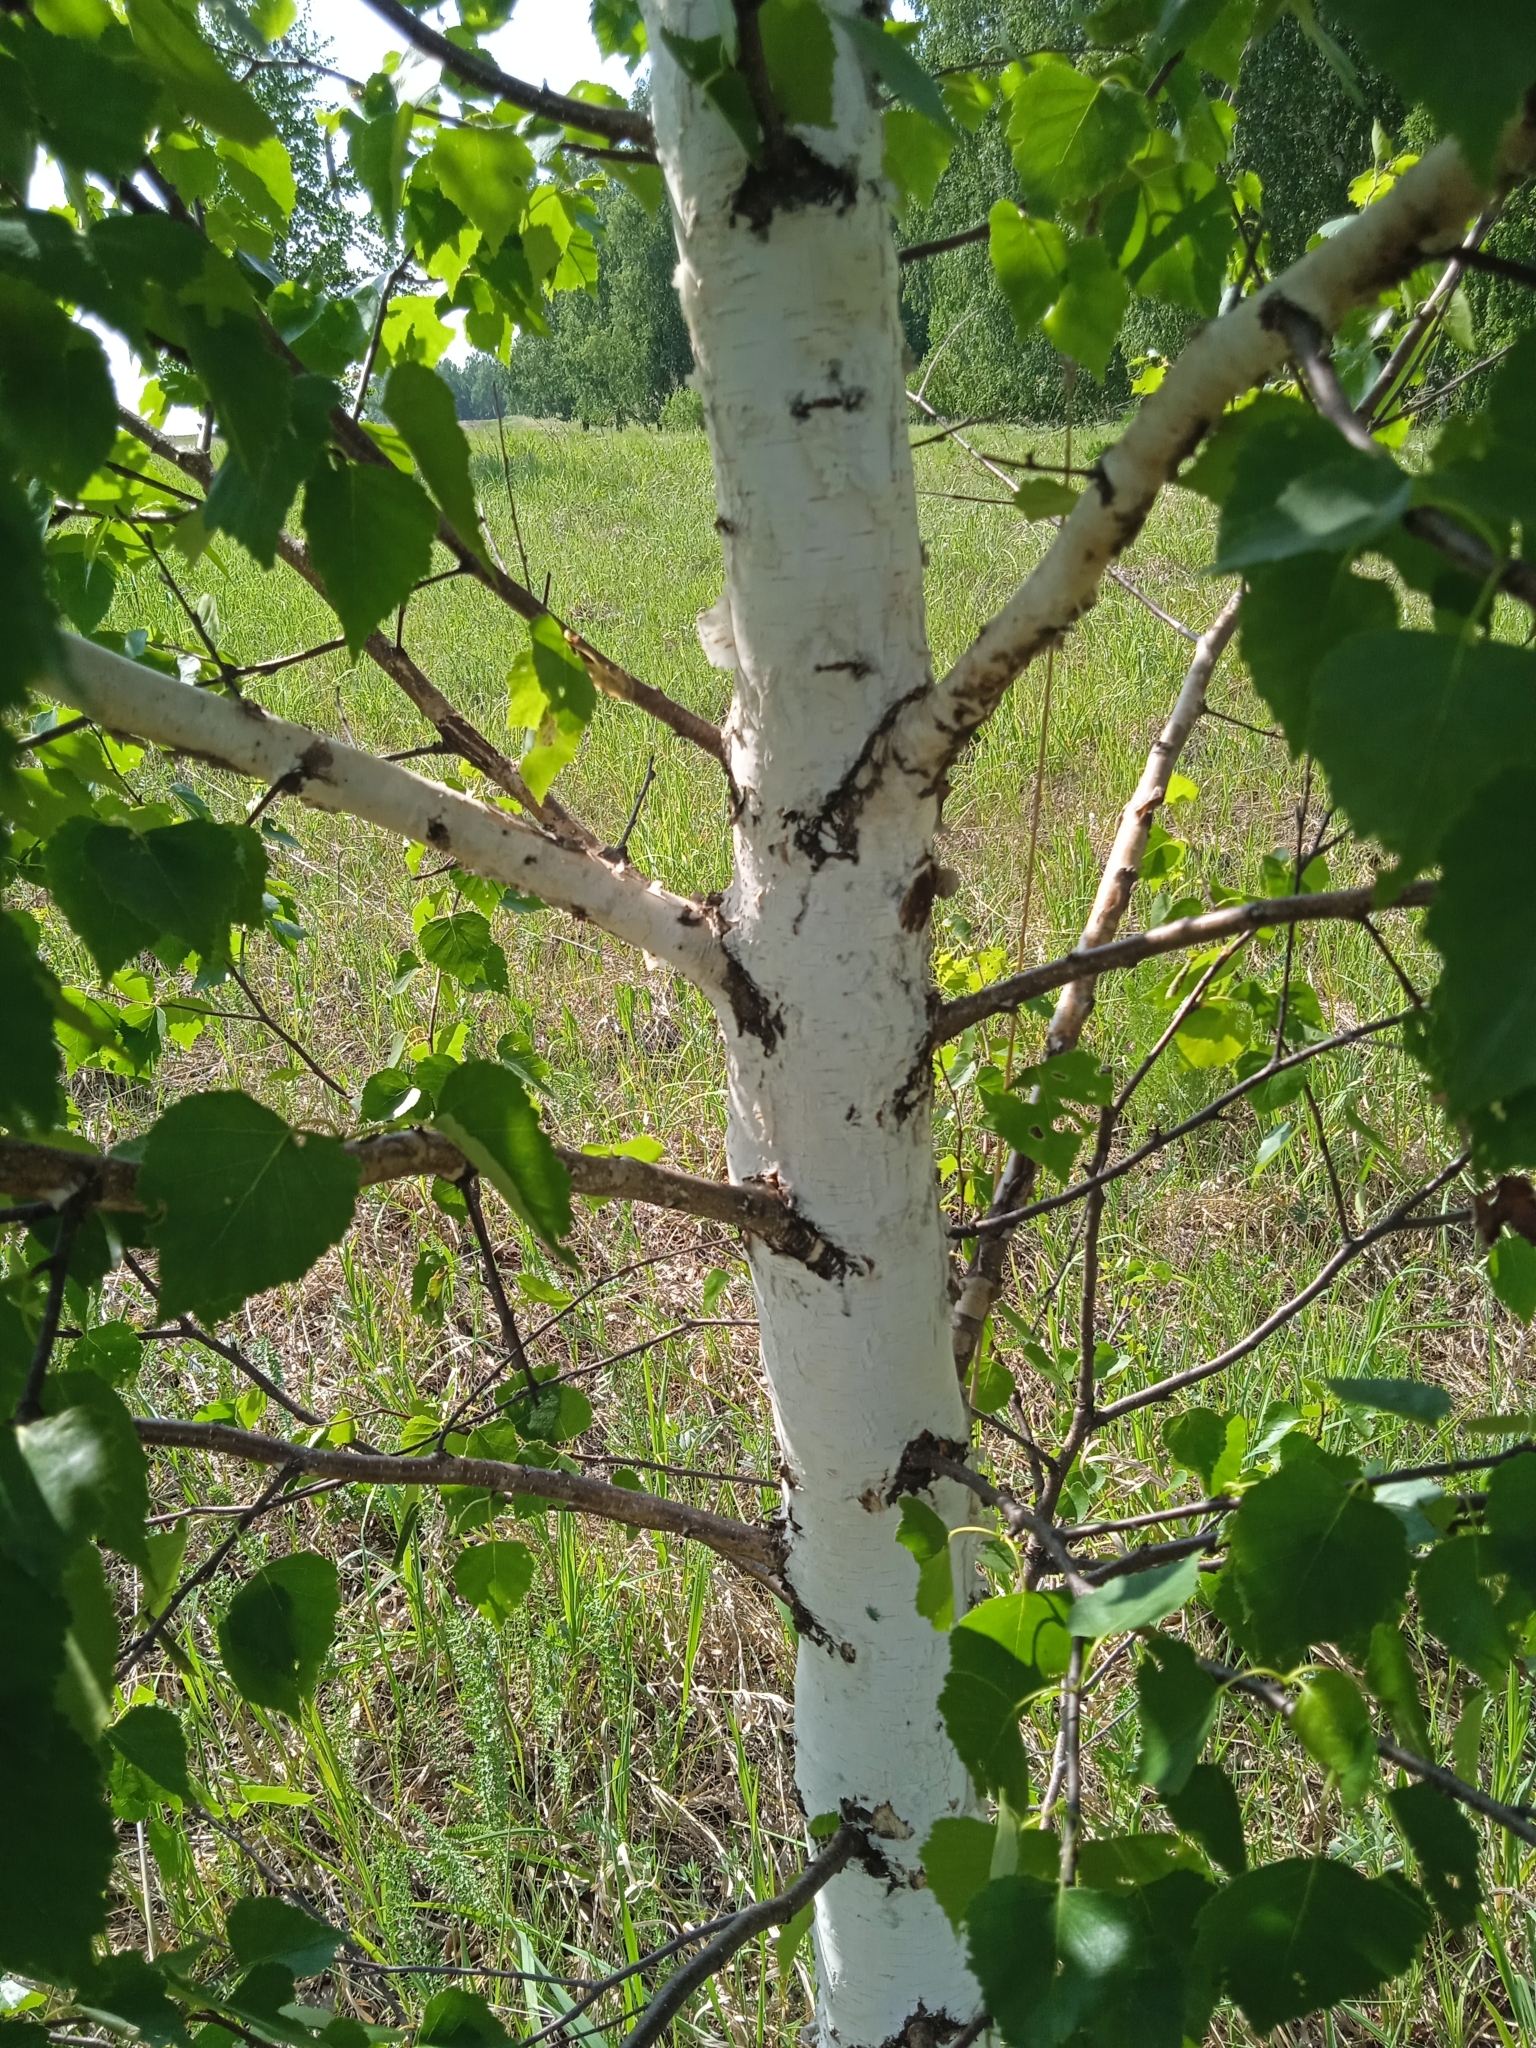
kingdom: Plantae
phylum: Tracheophyta
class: Magnoliopsida
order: Fagales
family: Betulaceae
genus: Betula
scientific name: Betula pendula
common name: Silver birch
